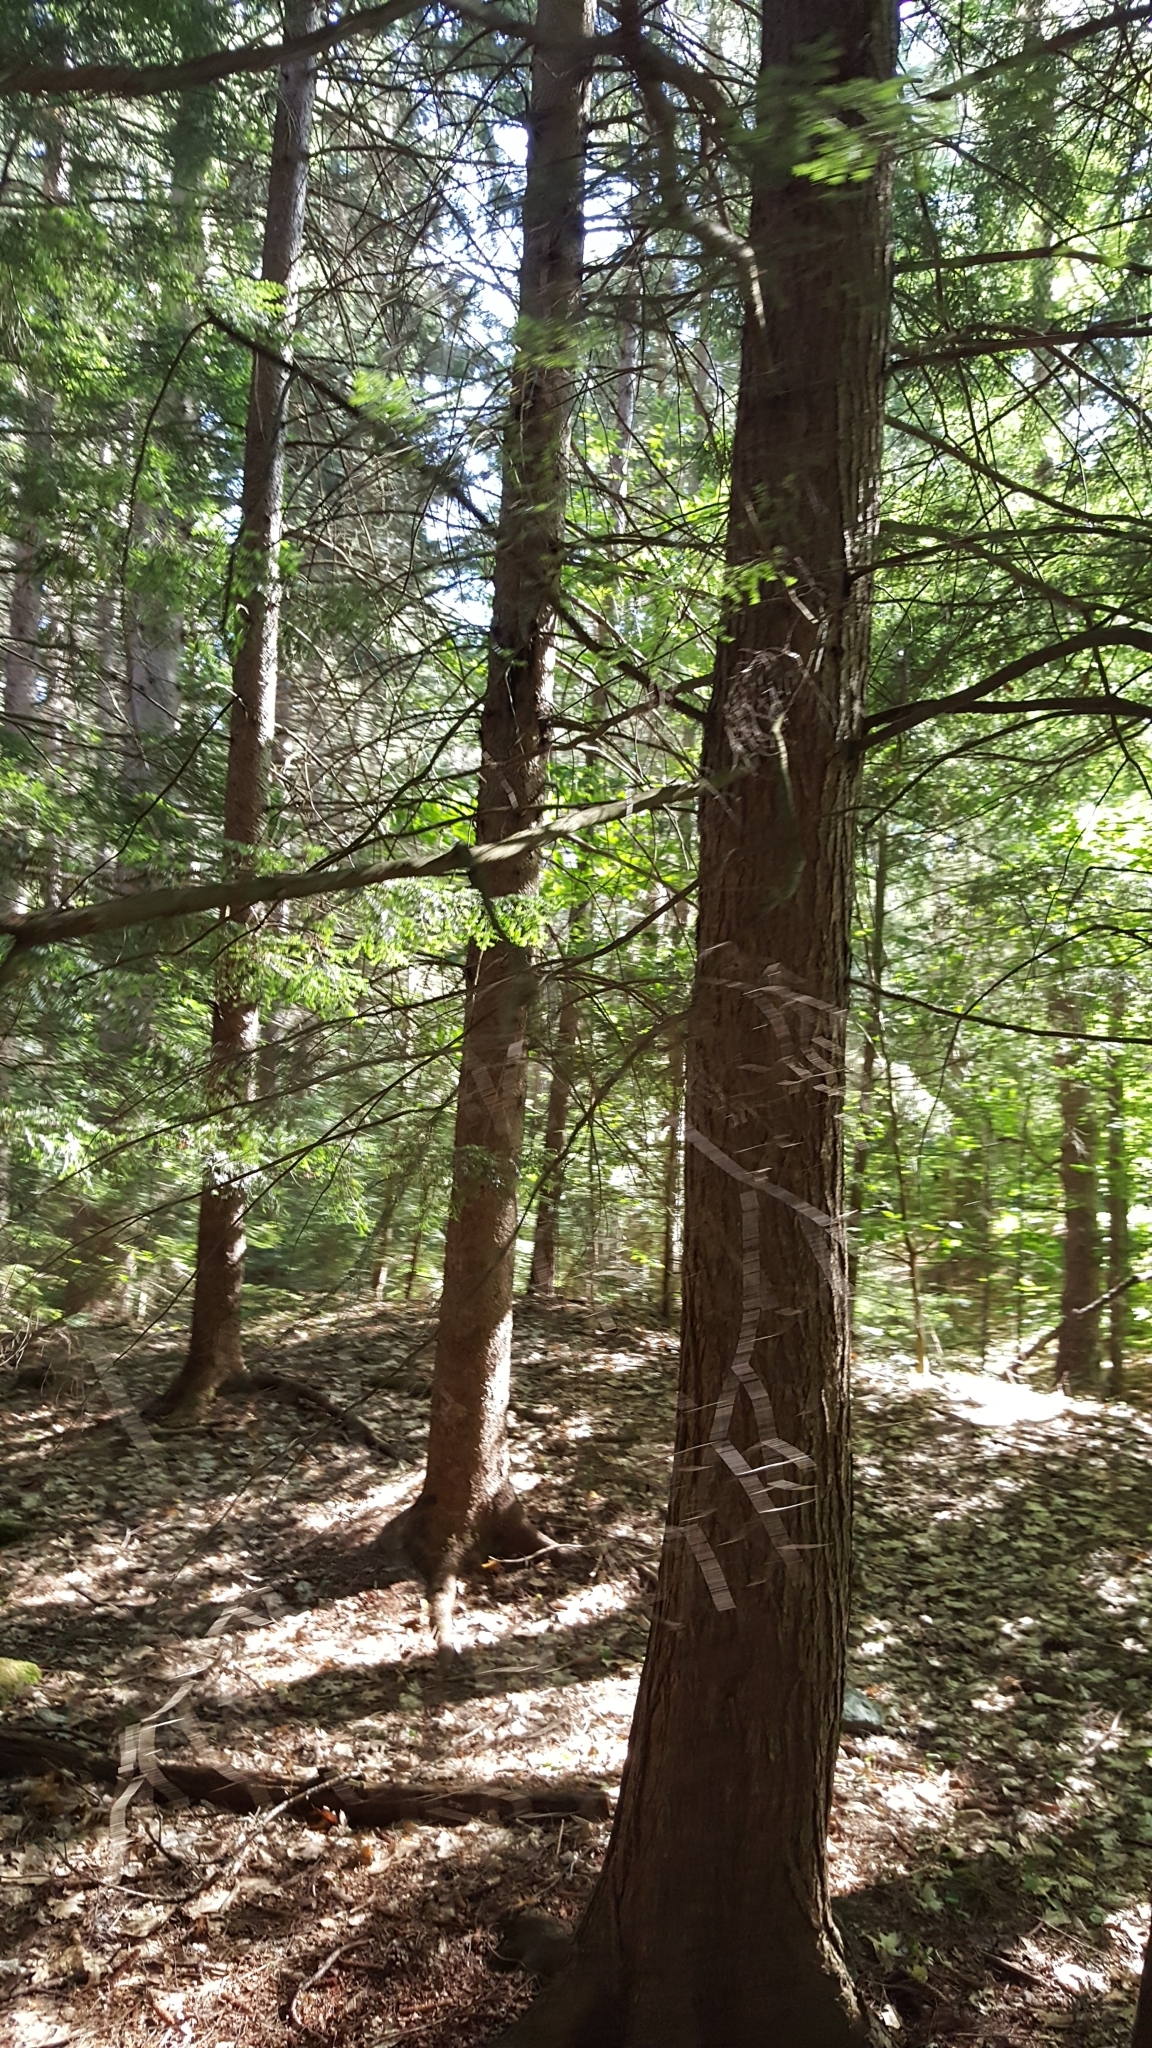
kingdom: Plantae
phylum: Tracheophyta
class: Pinopsida
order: Pinales
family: Pinaceae
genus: Tsuga
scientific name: Tsuga canadensis
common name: Eastern hemlock
